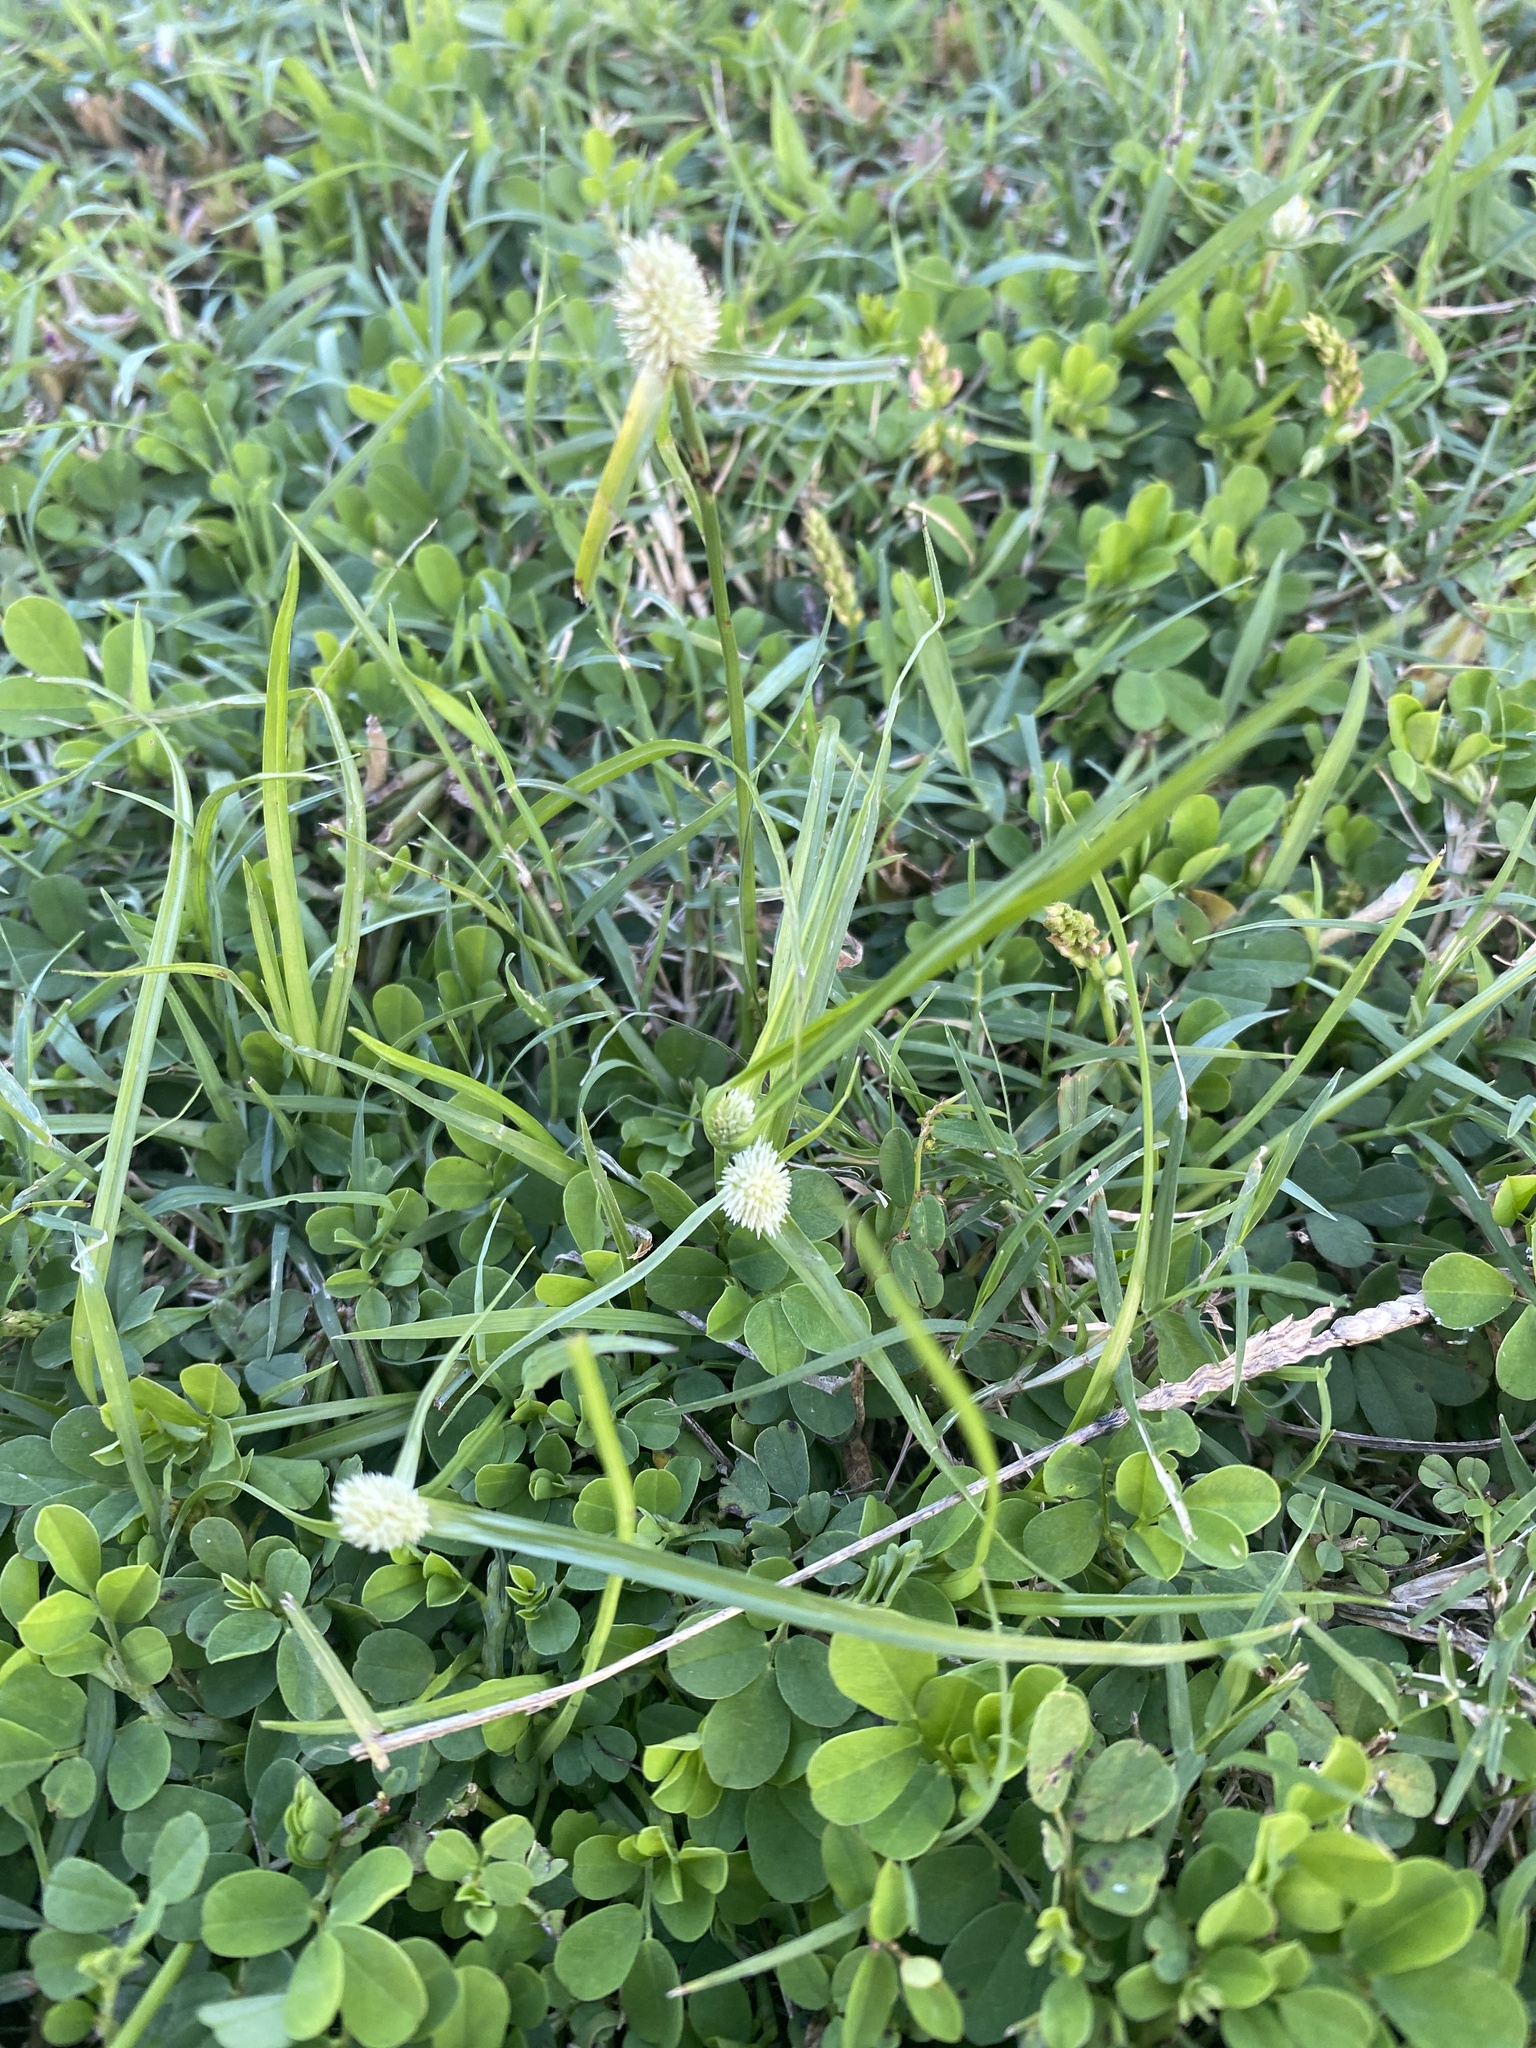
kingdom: Plantae
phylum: Tracheophyta
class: Liliopsida
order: Poales
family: Cyperaceae
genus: Cyperus
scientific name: Cyperus sesquiflorus
